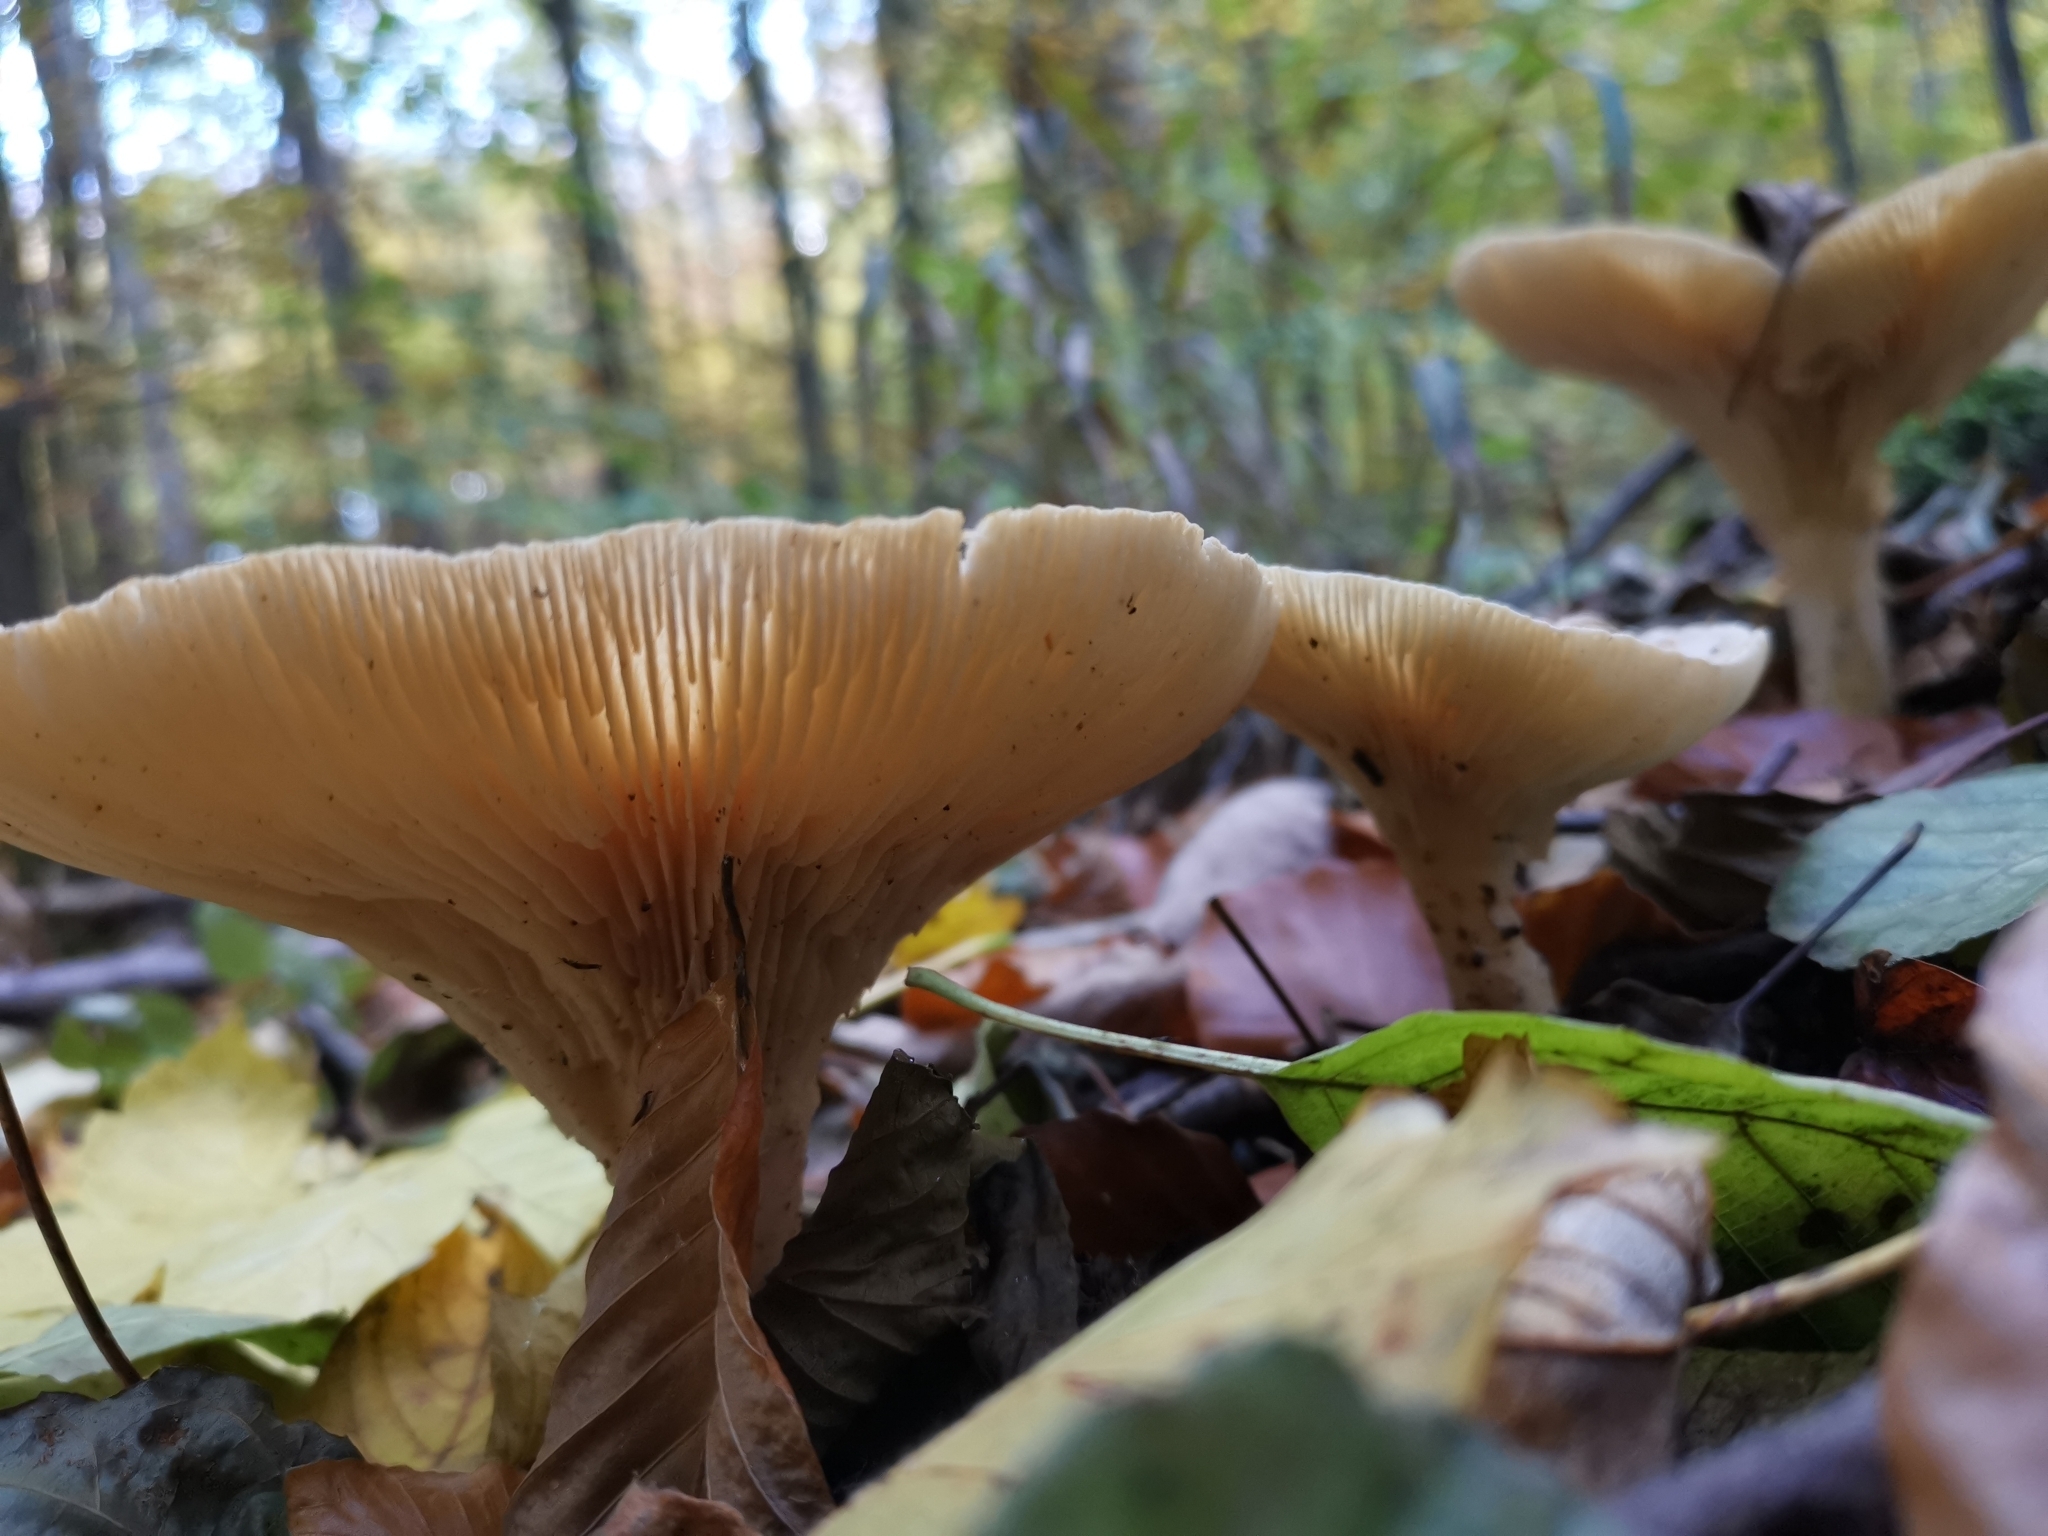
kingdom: Fungi
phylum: Basidiomycota
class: Agaricomycetes
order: Agaricales
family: Tricholomataceae
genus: Infundibulicybe
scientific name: Infundibulicybe geotropa
